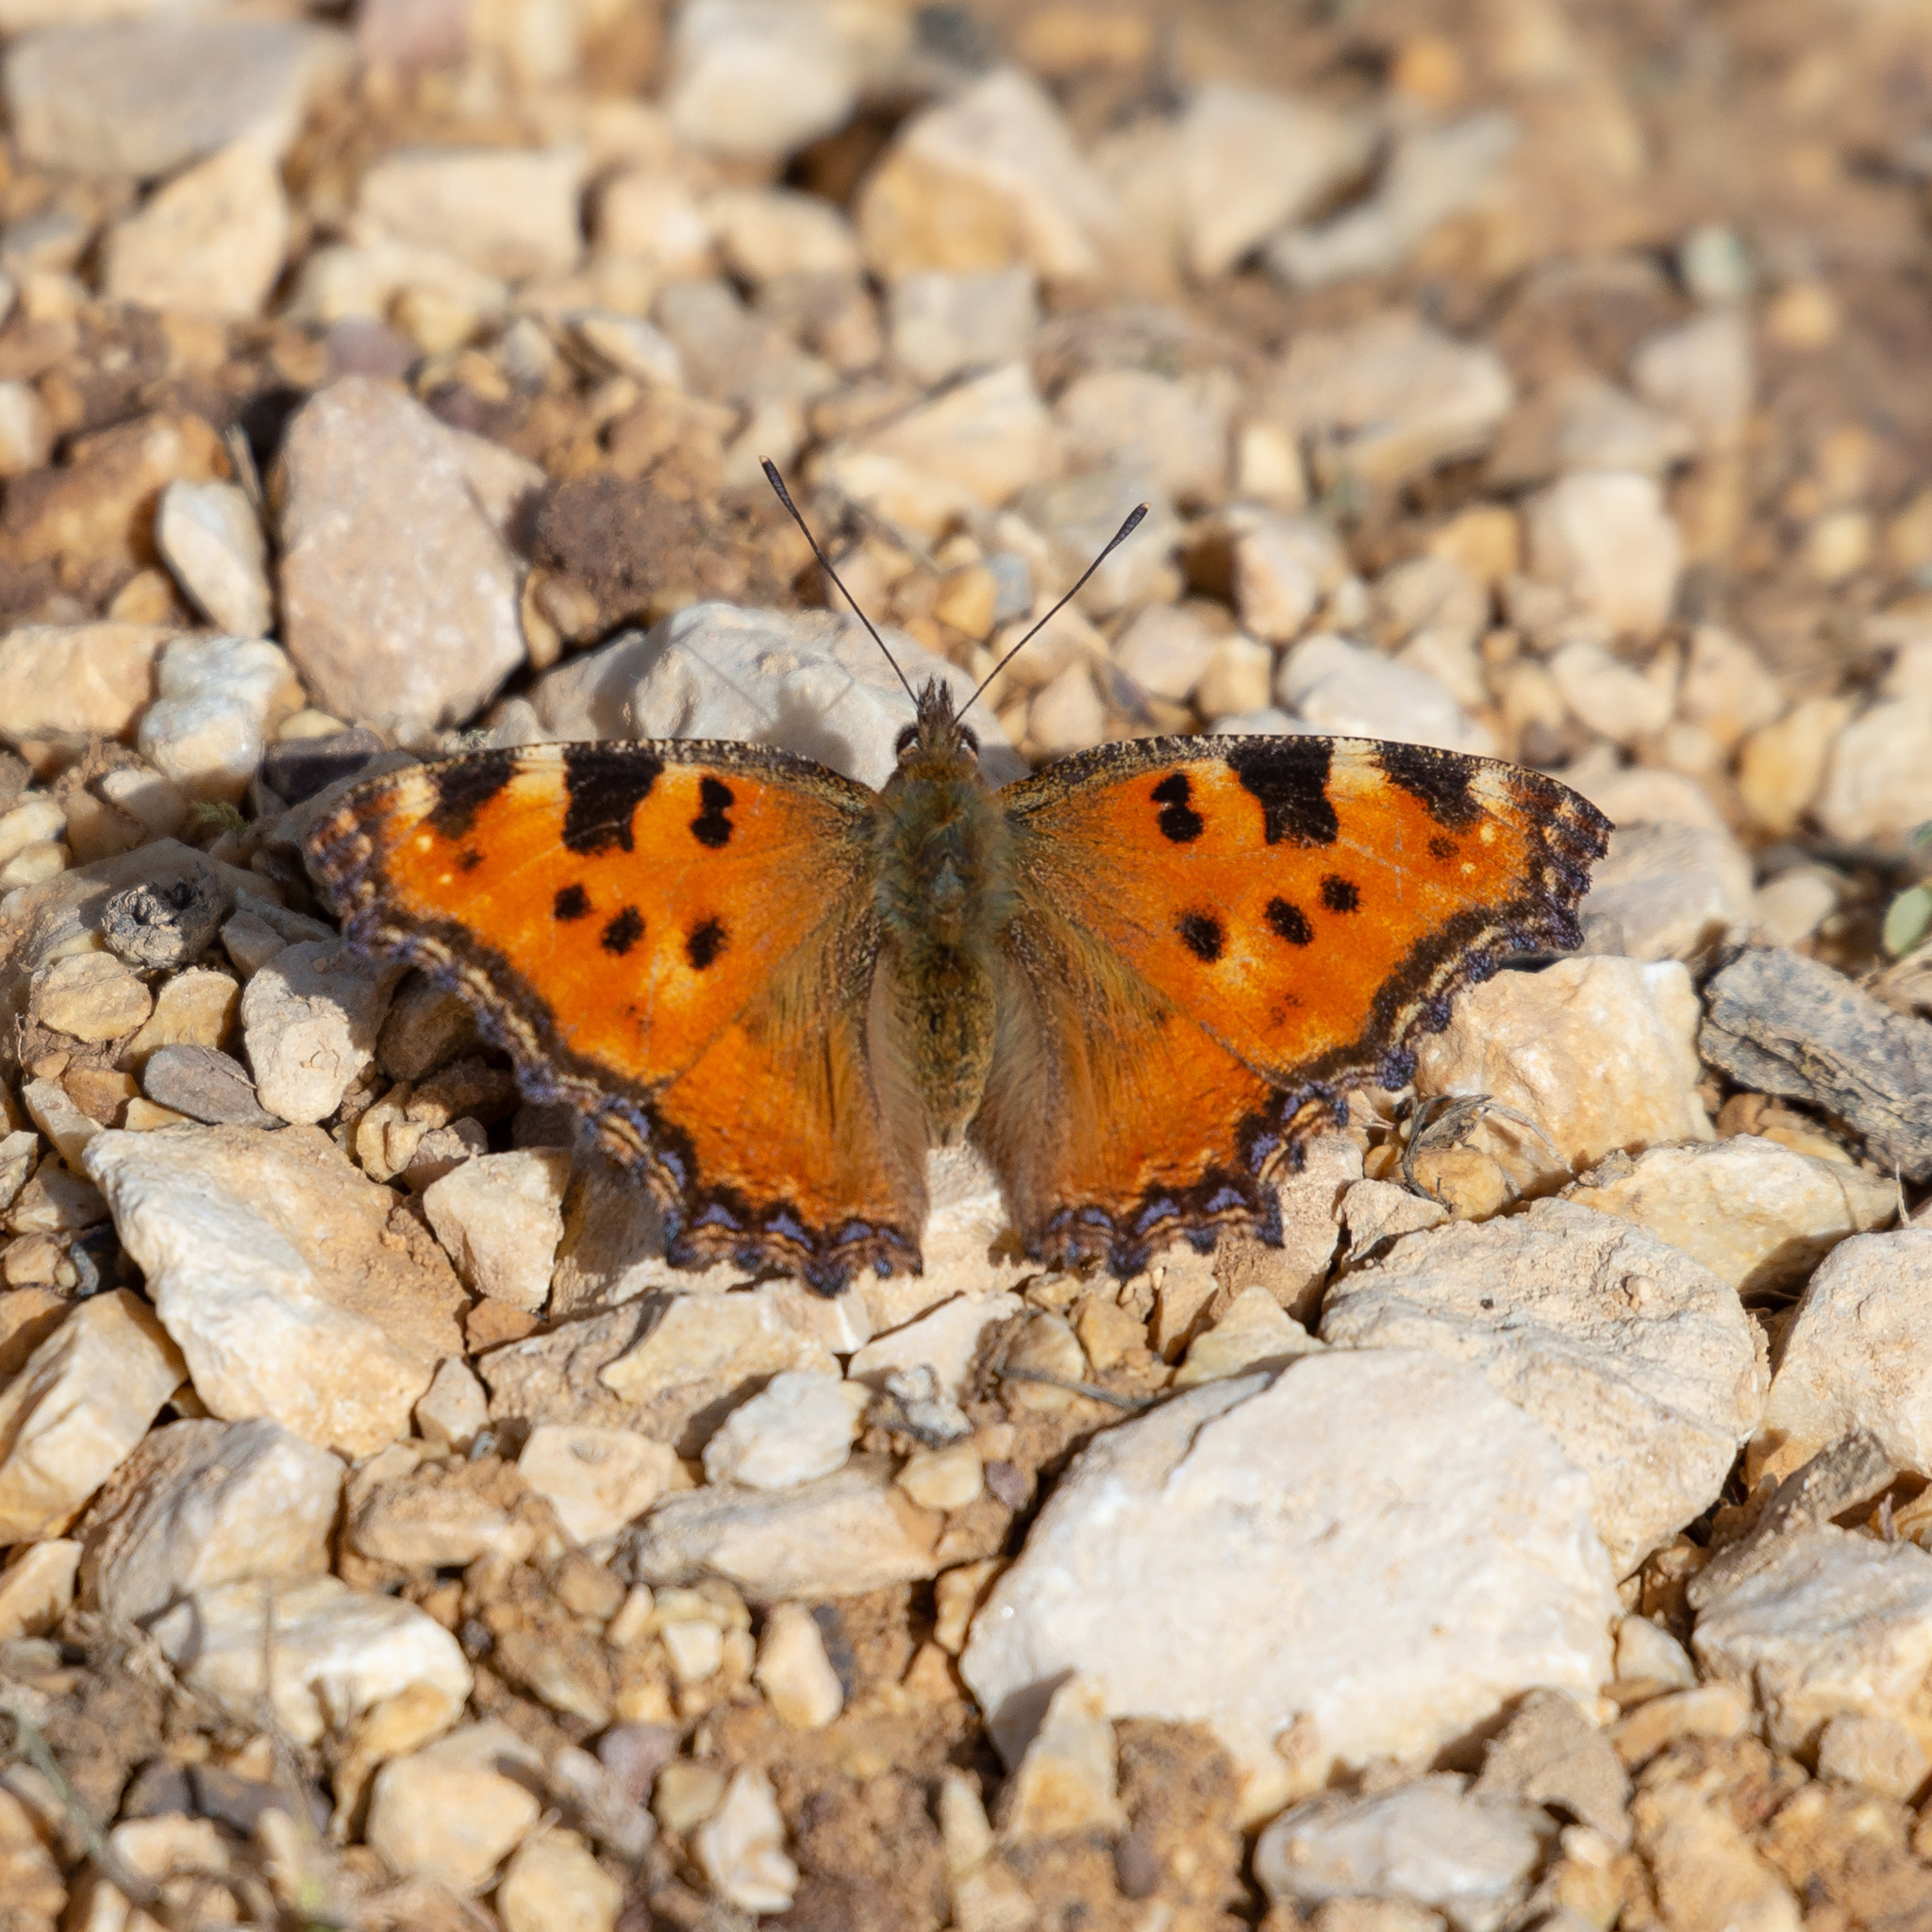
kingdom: Animalia
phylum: Arthropoda
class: Insecta
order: Lepidoptera
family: Nymphalidae
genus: Nymphalis
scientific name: Nymphalis polychloros
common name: Large tortoiseshell
